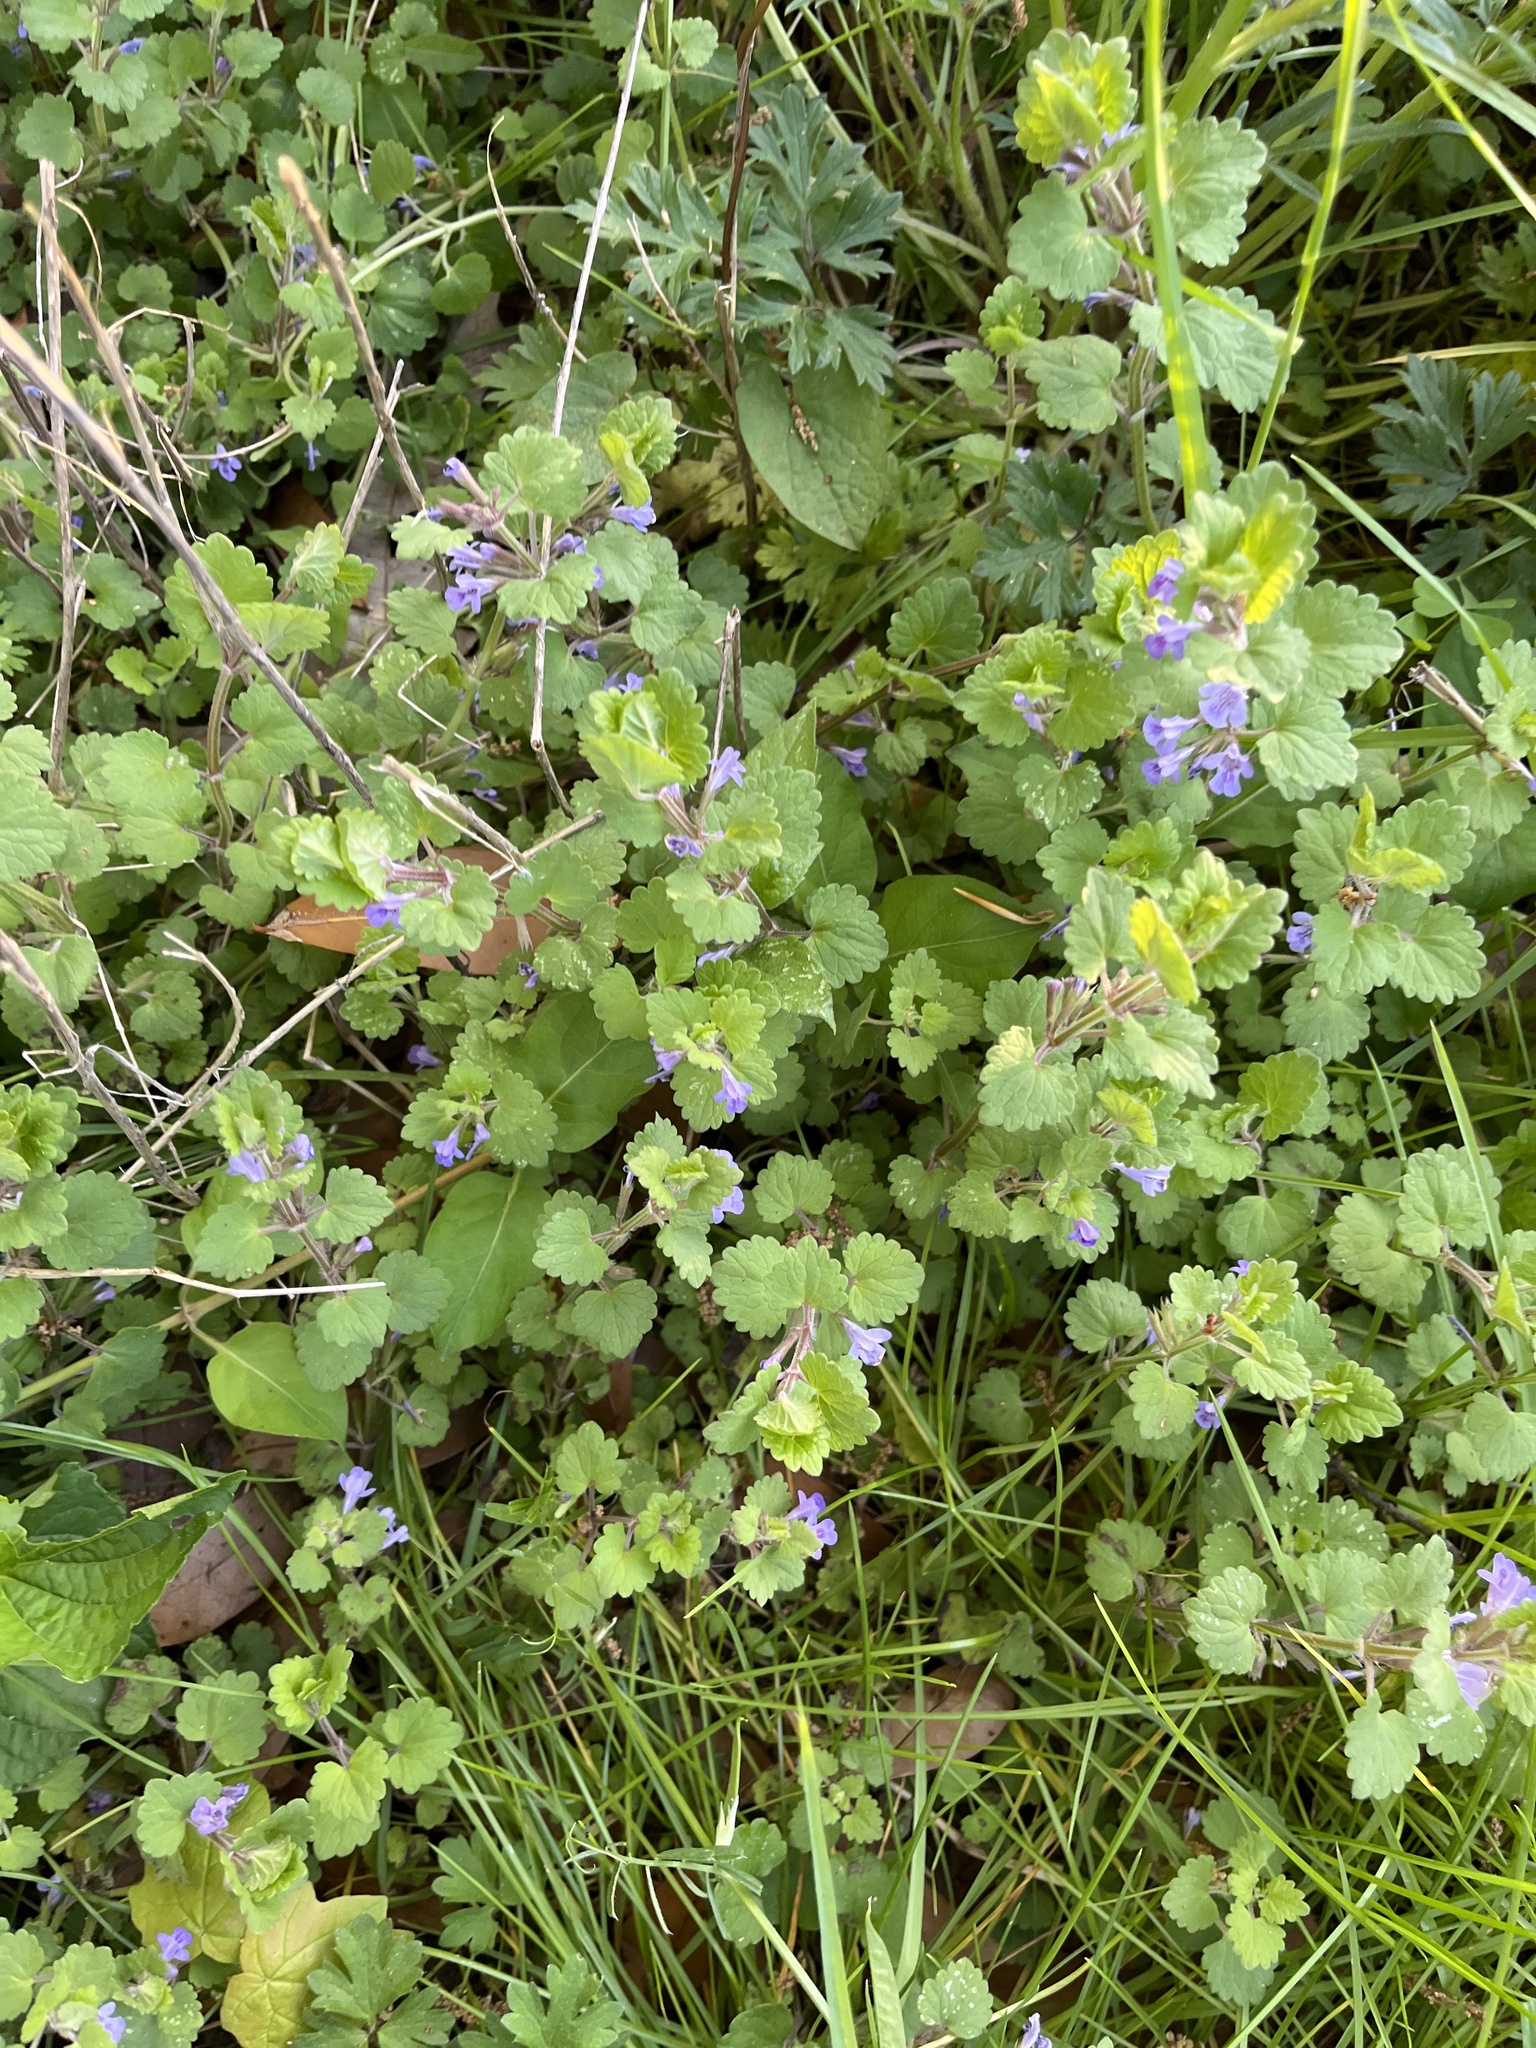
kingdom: Plantae
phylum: Tracheophyta
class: Magnoliopsida
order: Lamiales
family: Lamiaceae
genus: Glechoma
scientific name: Glechoma hederacea
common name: Ground ivy
